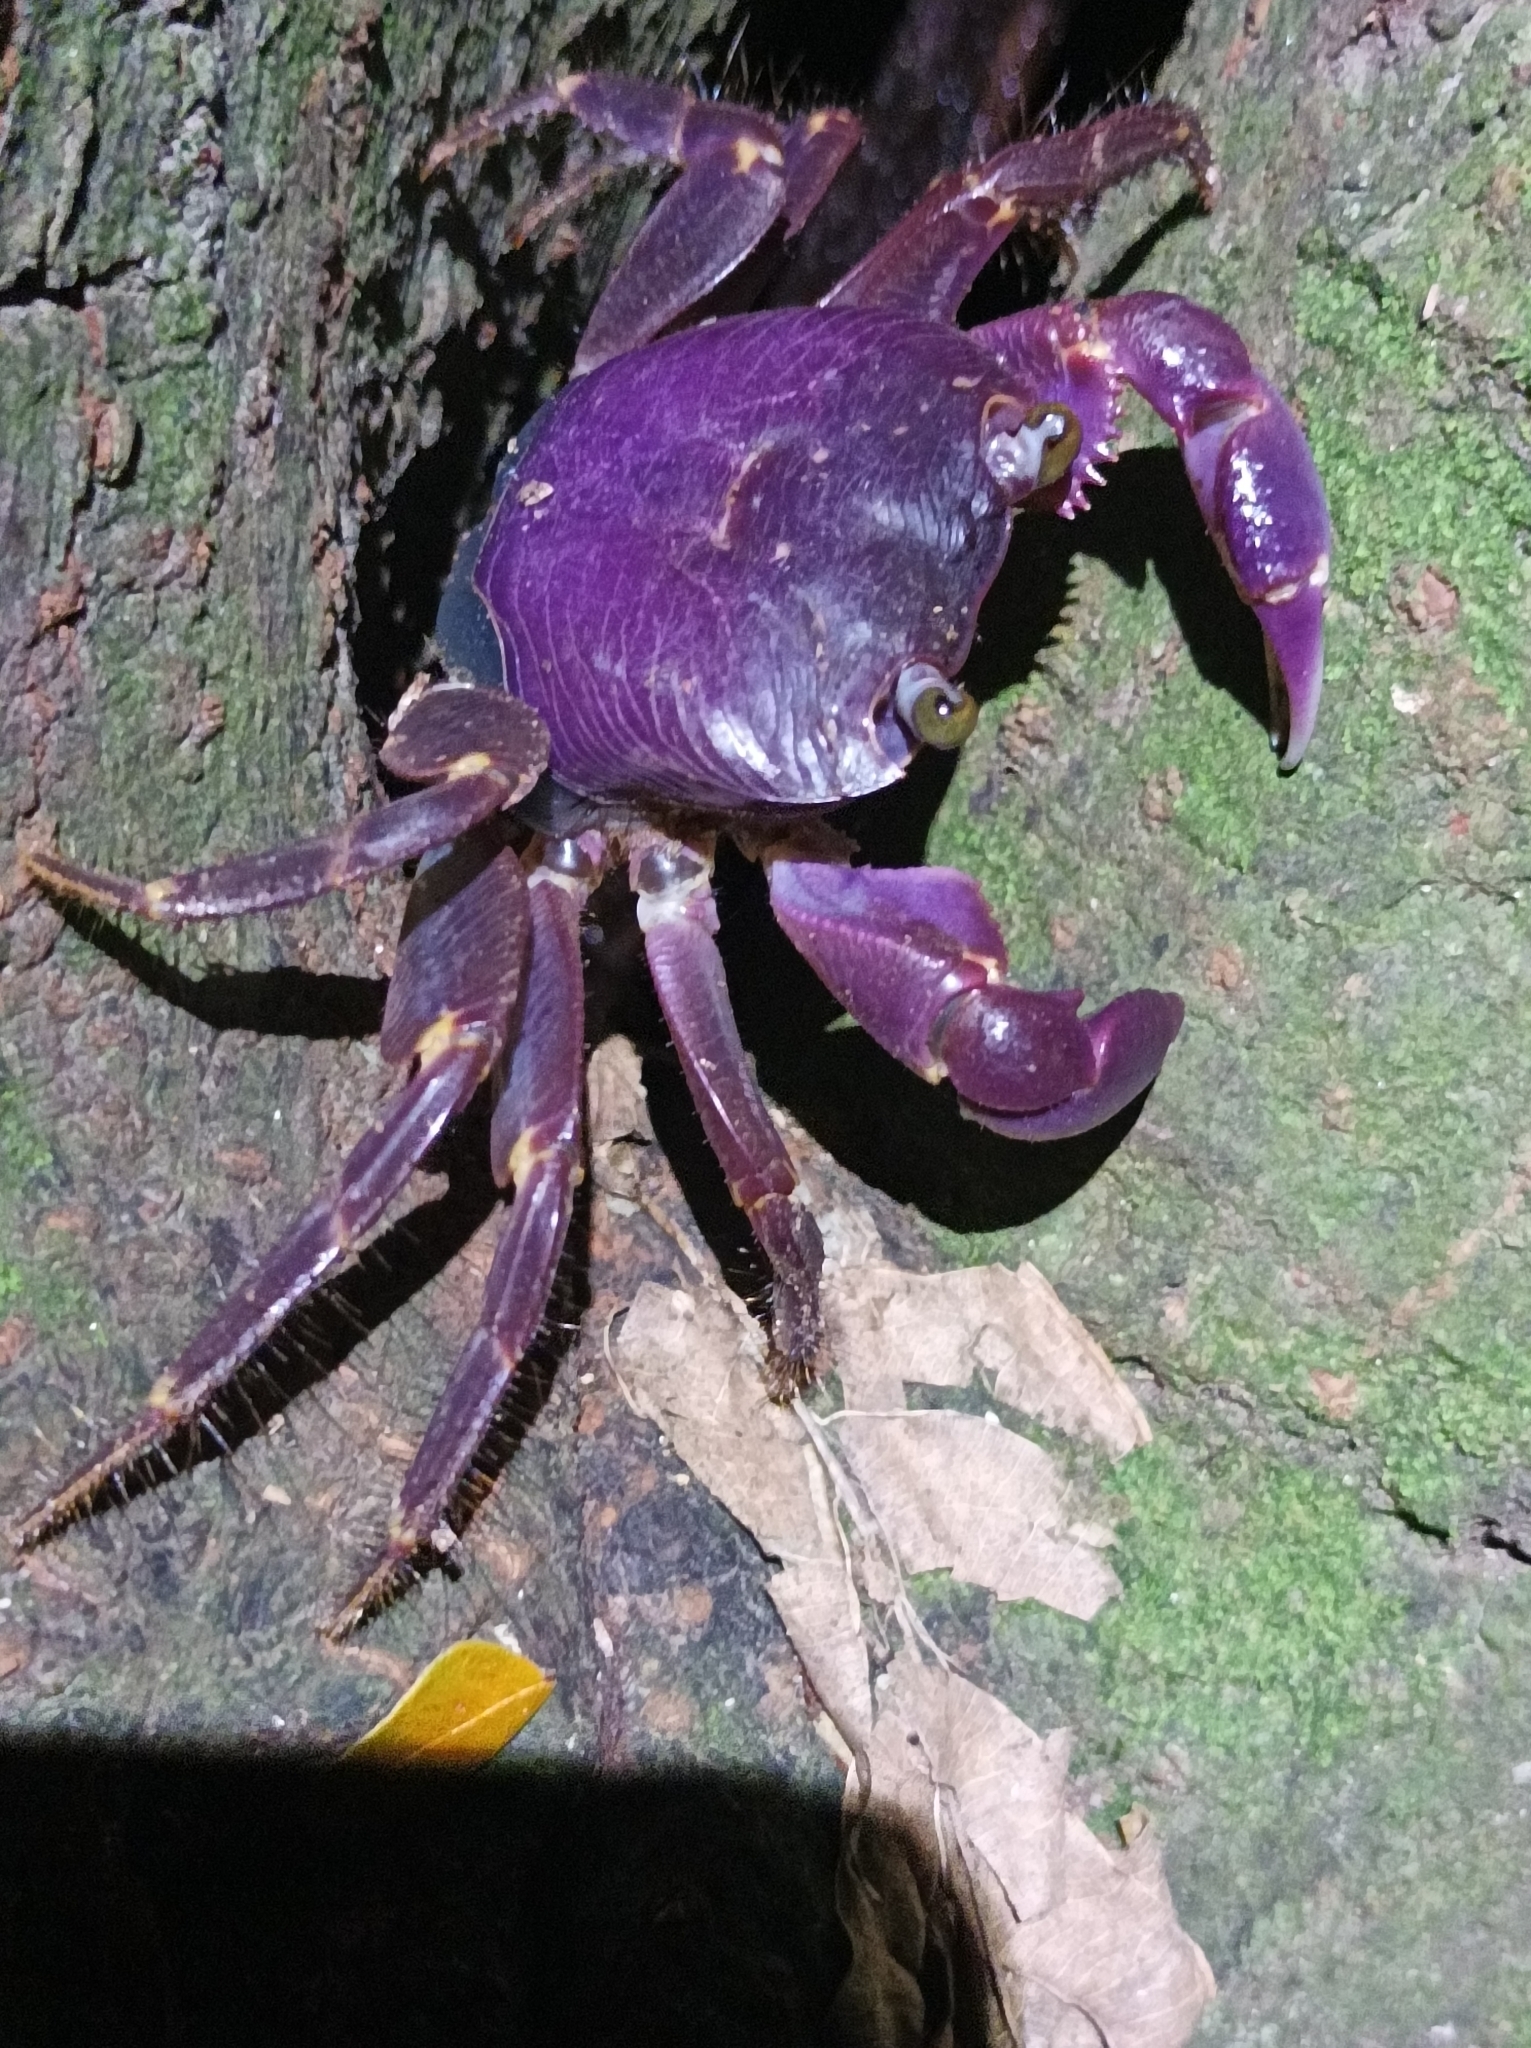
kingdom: Animalia
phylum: Arthropoda
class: Malacostraca
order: Decapoda
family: Grapsidae
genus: Geograpsus
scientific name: Geograpsus grayi
